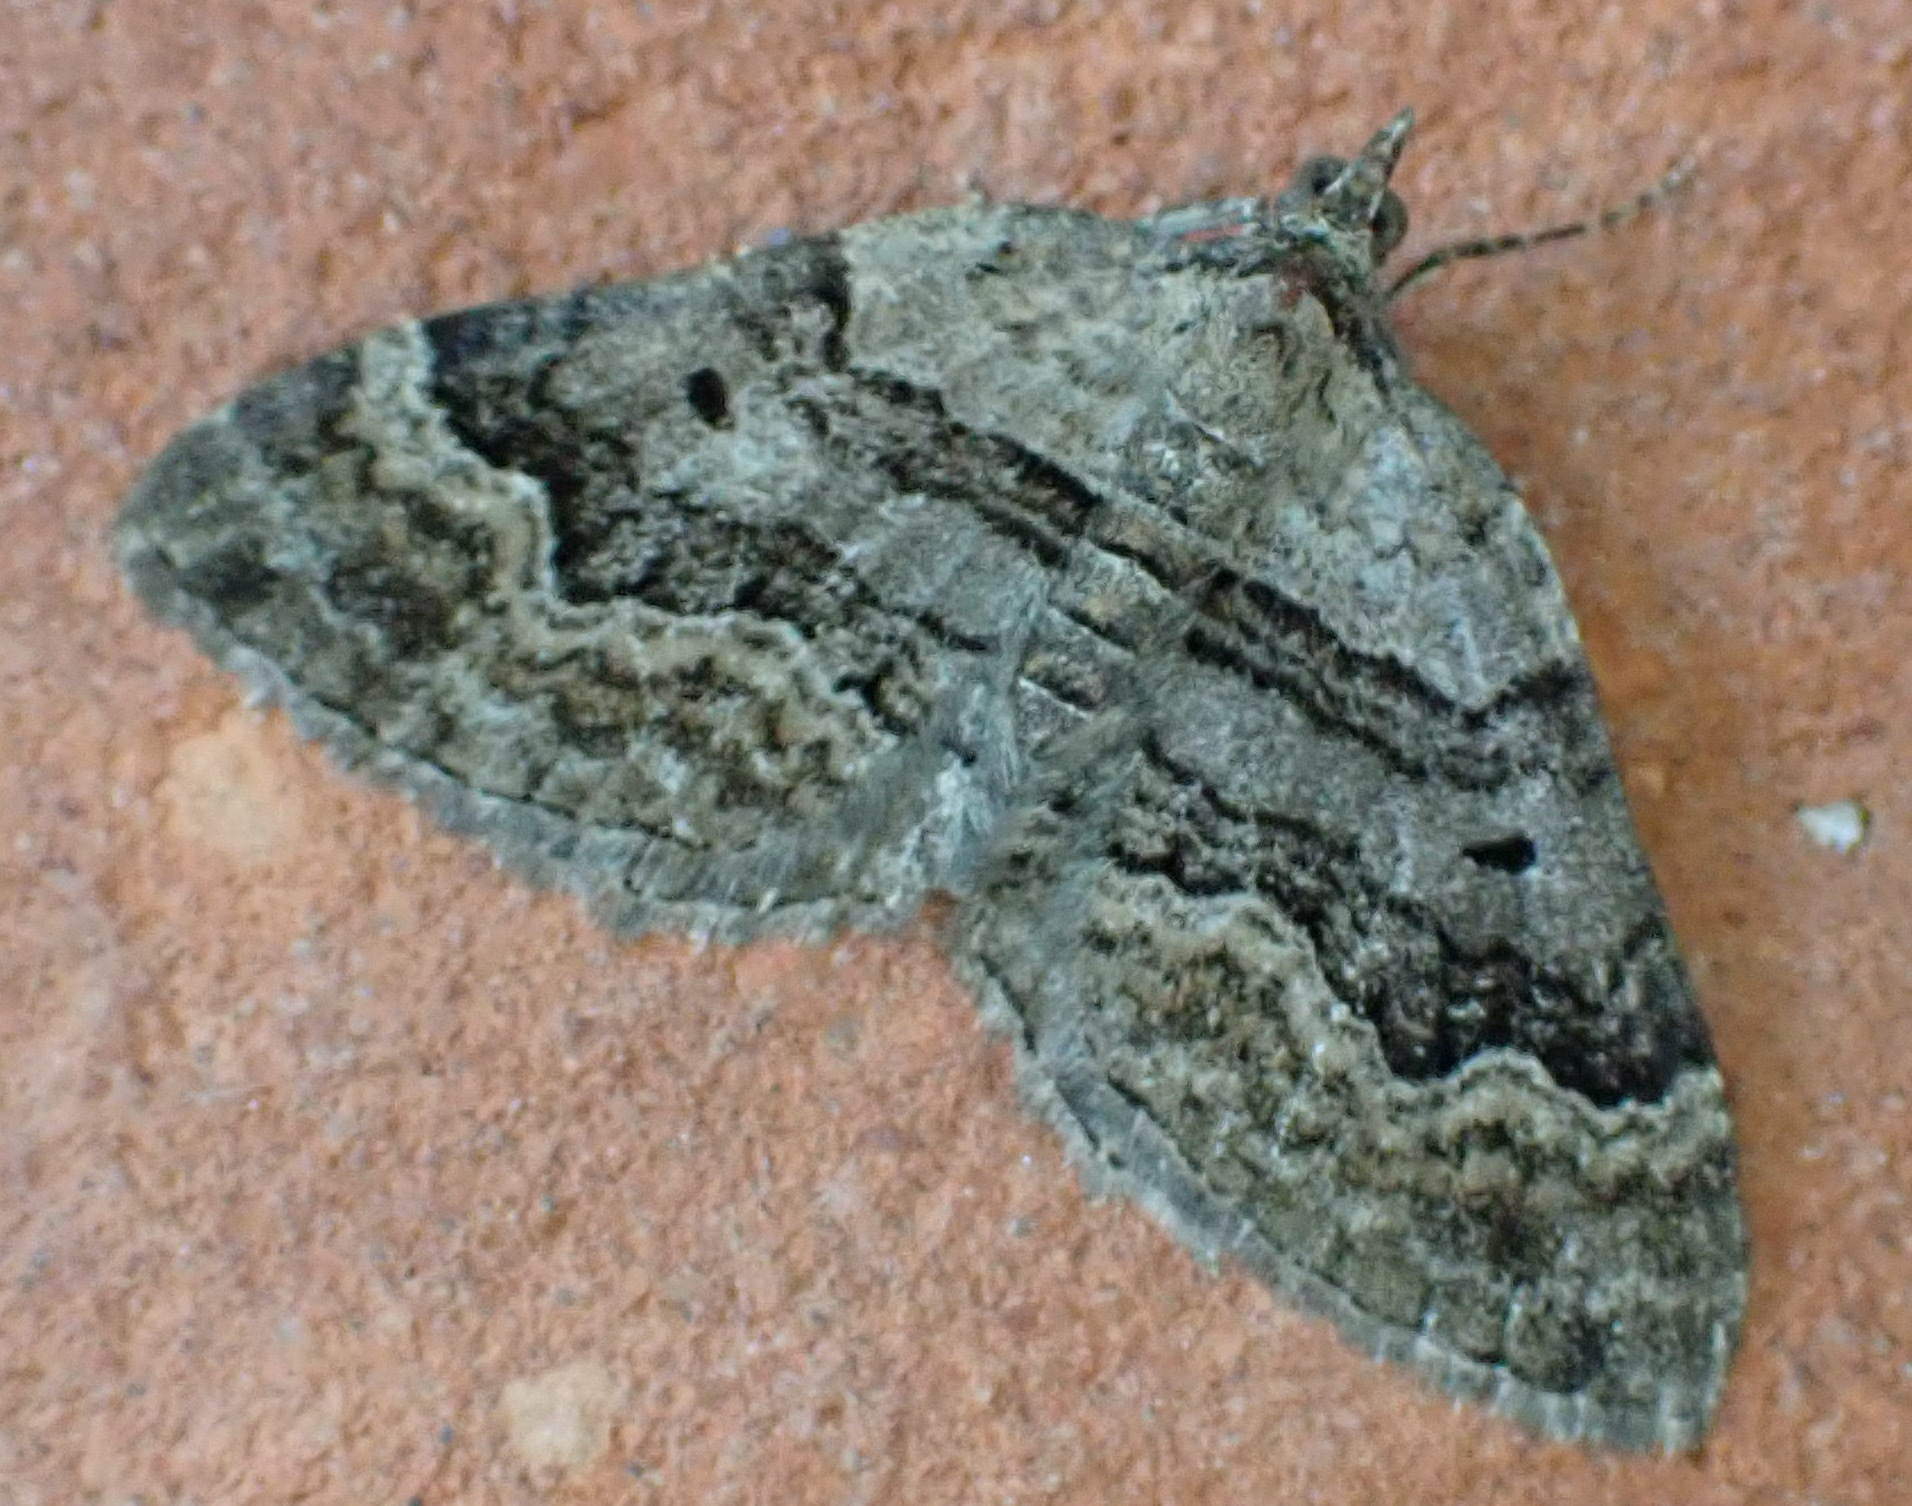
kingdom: Animalia
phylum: Arthropoda
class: Insecta
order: Lepidoptera
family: Geometridae
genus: Xanthorhoe
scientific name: Xanthorhoe quadrifasiata
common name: Large twin-spot carpet
